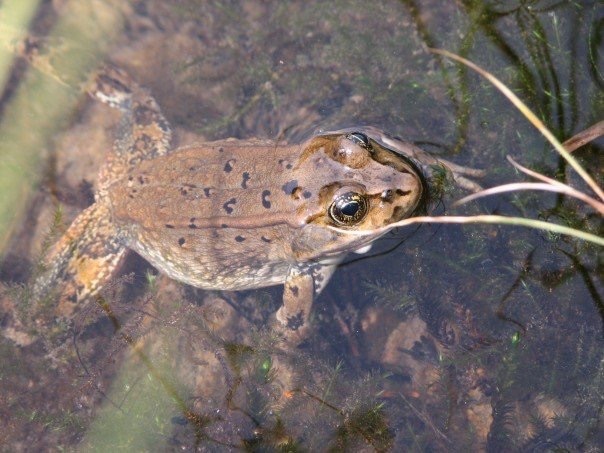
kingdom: Animalia
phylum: Chordata
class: Amphibia
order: Anura
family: Ranidae
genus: Rana
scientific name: Rana luteiventris
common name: Columbia spotted frog
